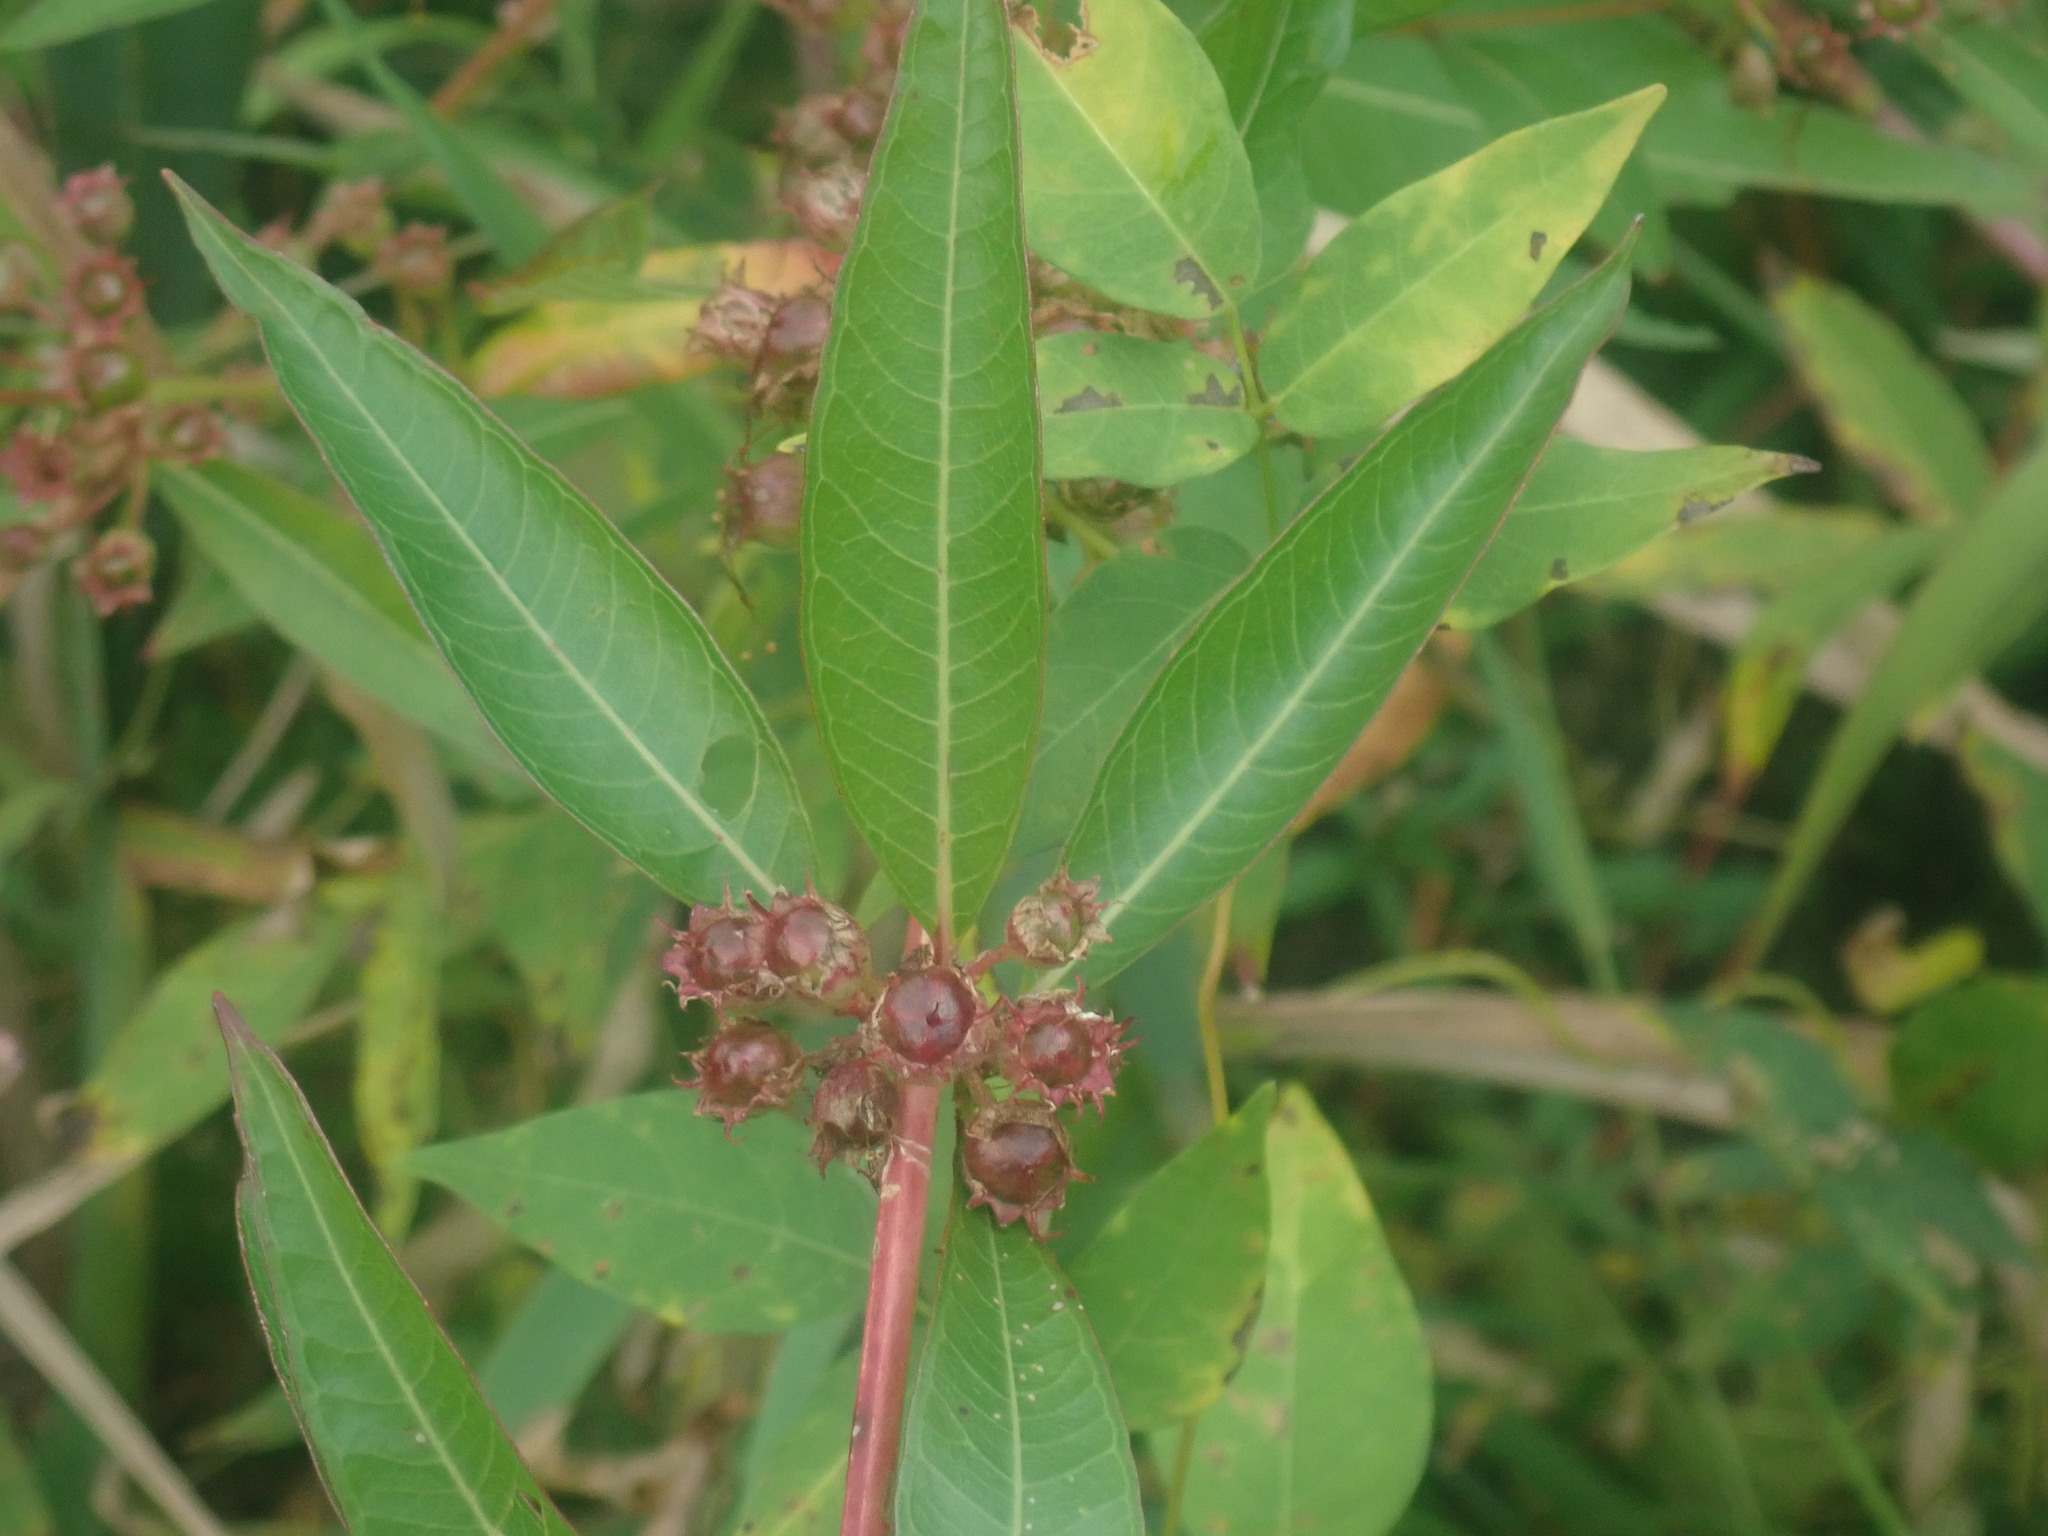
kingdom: Plantae
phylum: Tracheophyta
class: Magnoliopsida
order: Myrtales
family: Lythraceae
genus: Decodon
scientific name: Decodon verticillatus
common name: Hairy swamp loosestrife
